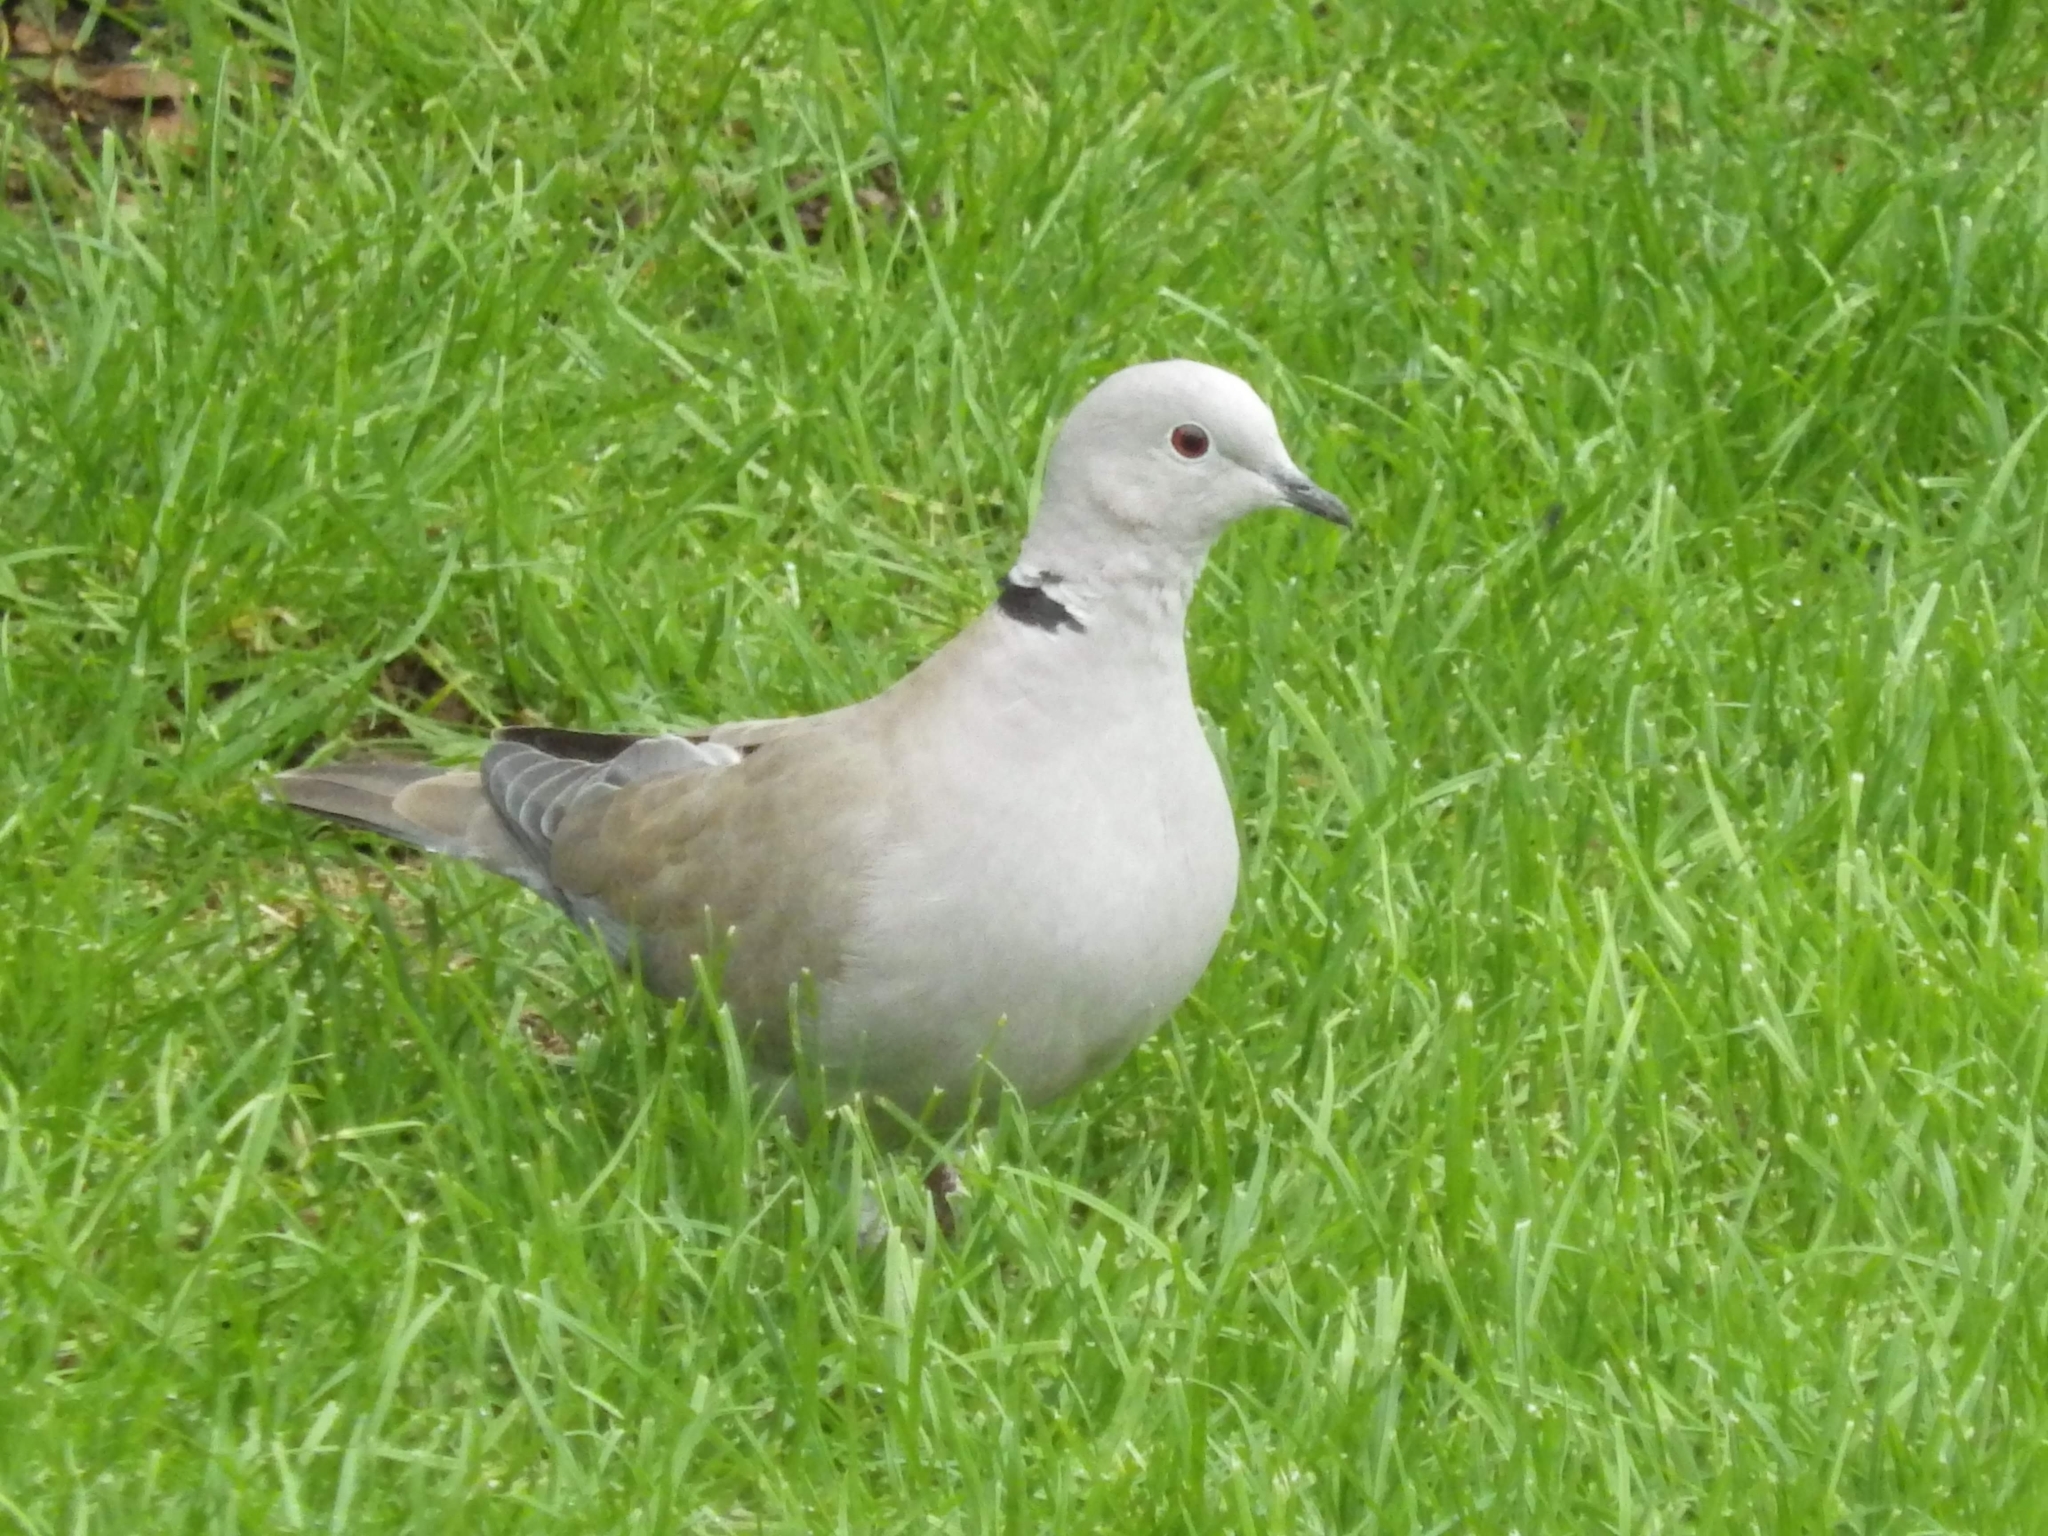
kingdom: Animalia
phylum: Chordata
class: Aves
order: Columbiformes
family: Columbidae
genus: Streptopelia
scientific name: Streptopelia decaocto
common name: Eurasian collared dove
